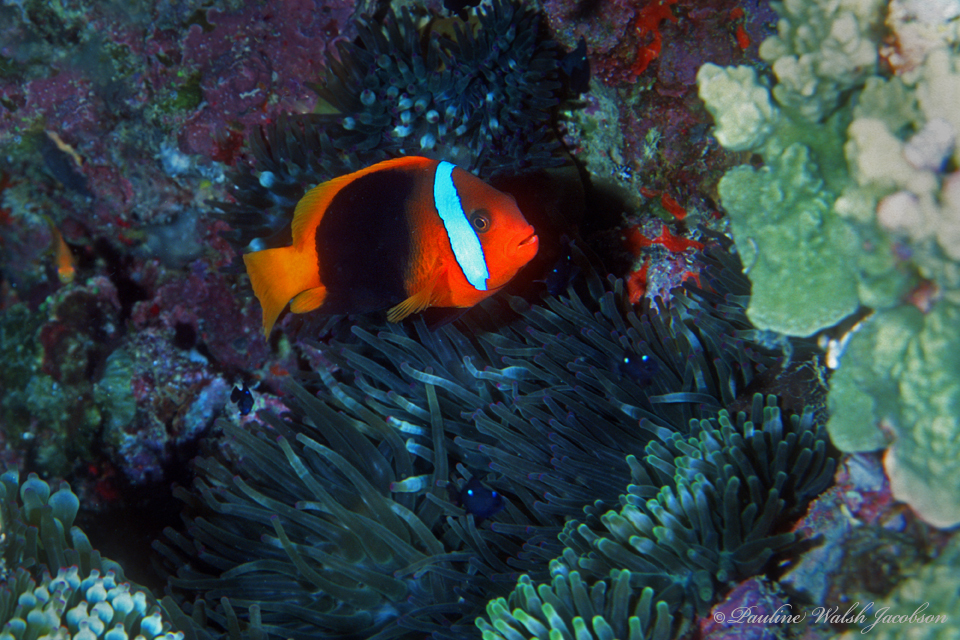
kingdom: Animalia
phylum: Chordata
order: Perciformes
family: Pomacentridae
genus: Amphiprion
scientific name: Amphiprion melanopus
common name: Black anemonefish
